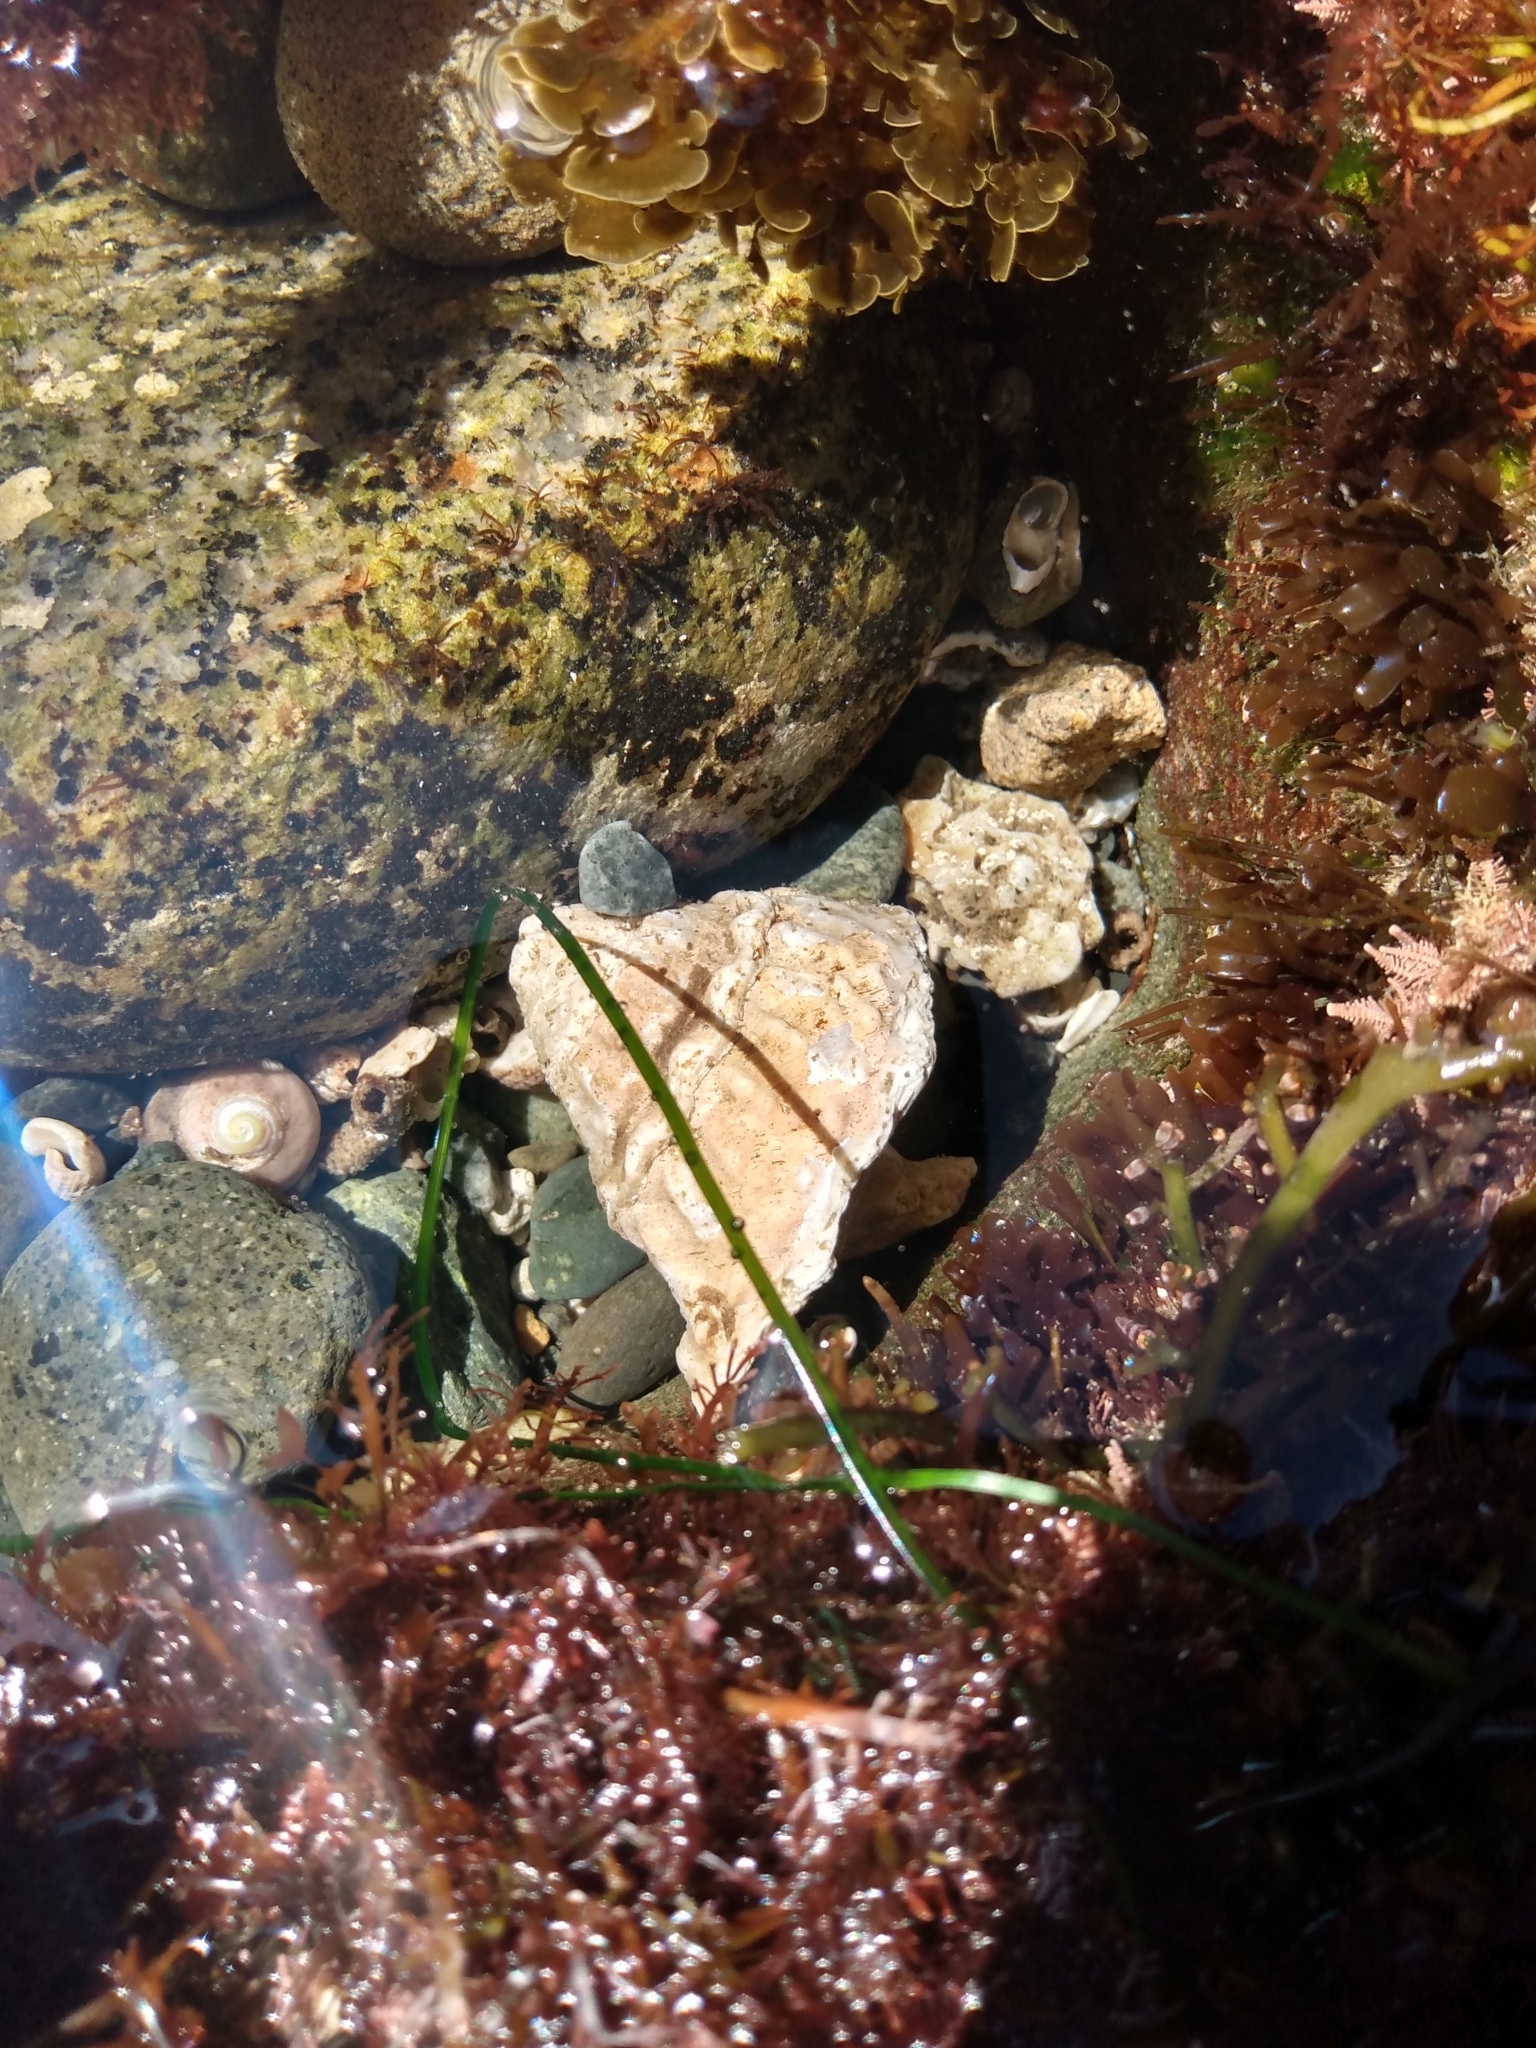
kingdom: Animalia
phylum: Mollusca
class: Gastropoda
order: Trochida
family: Turbinidae
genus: Megastraea
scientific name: Megastraea undosa
